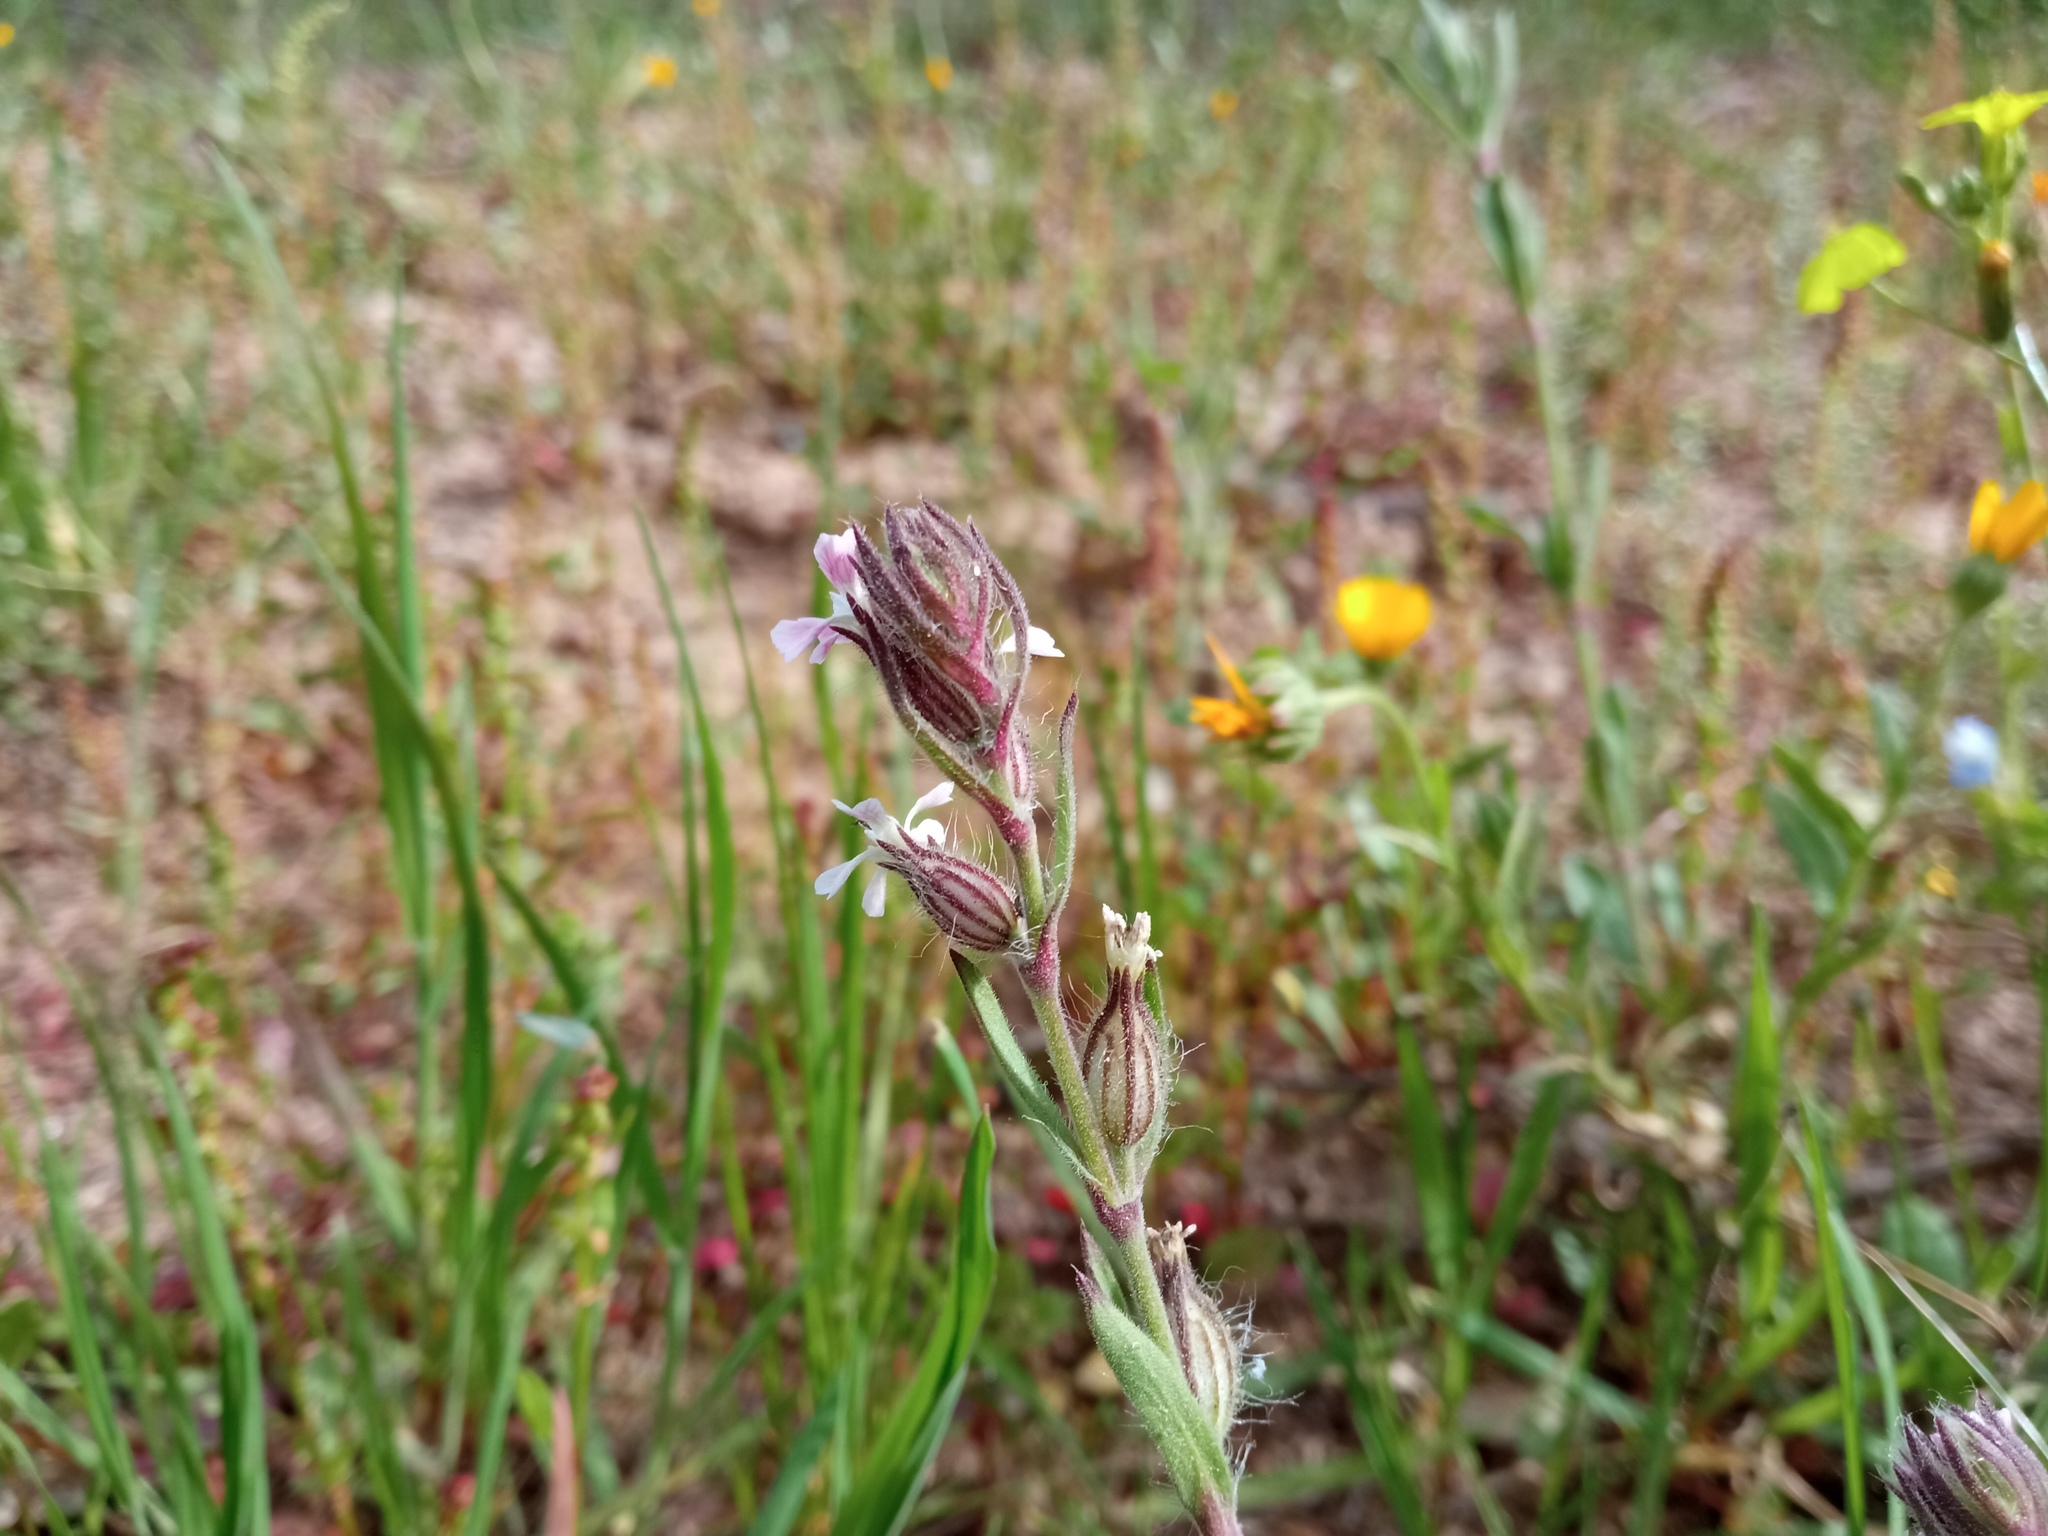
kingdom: Plantae
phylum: Tracheophyta
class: Magnoliopsida
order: Caryophyllales
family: Caryophyllaceae
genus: Silene
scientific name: Silene gallica
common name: Small-flowered catchfly
